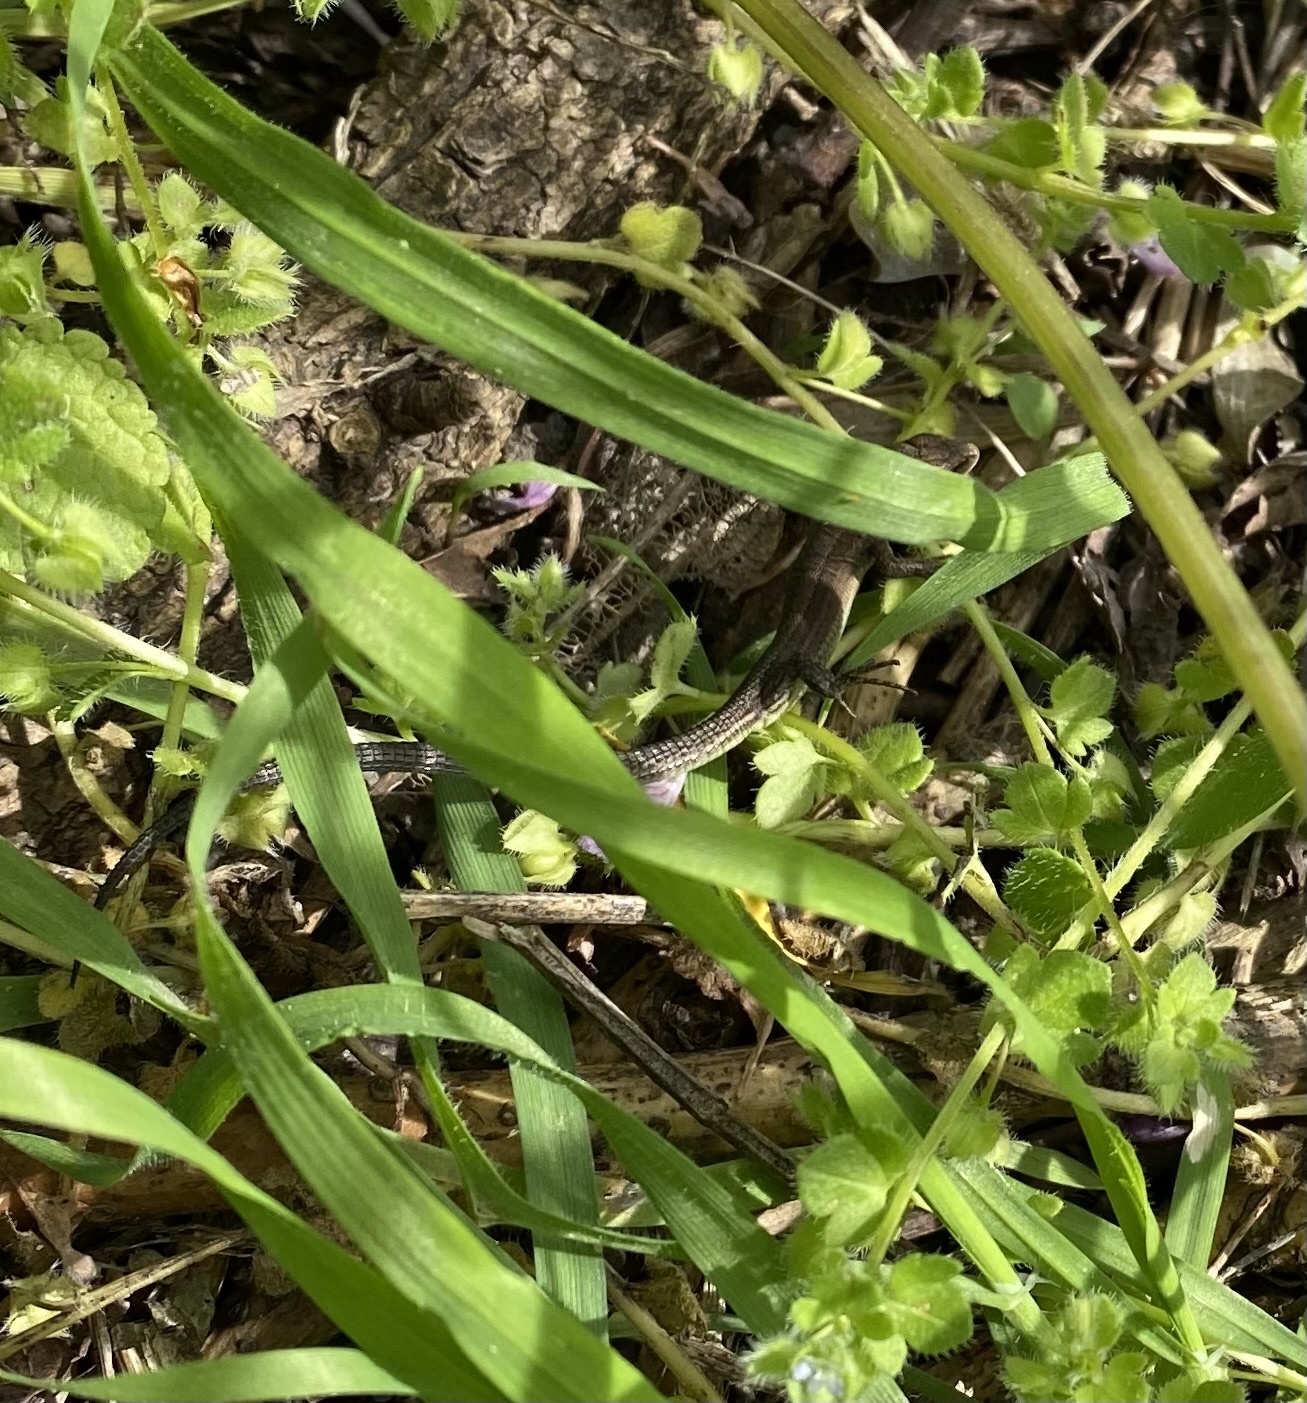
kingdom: Animalia
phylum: Chordata
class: Squamata
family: Lacertidae
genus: Darevskia
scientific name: Darevskia praticola
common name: Meadow lizard
